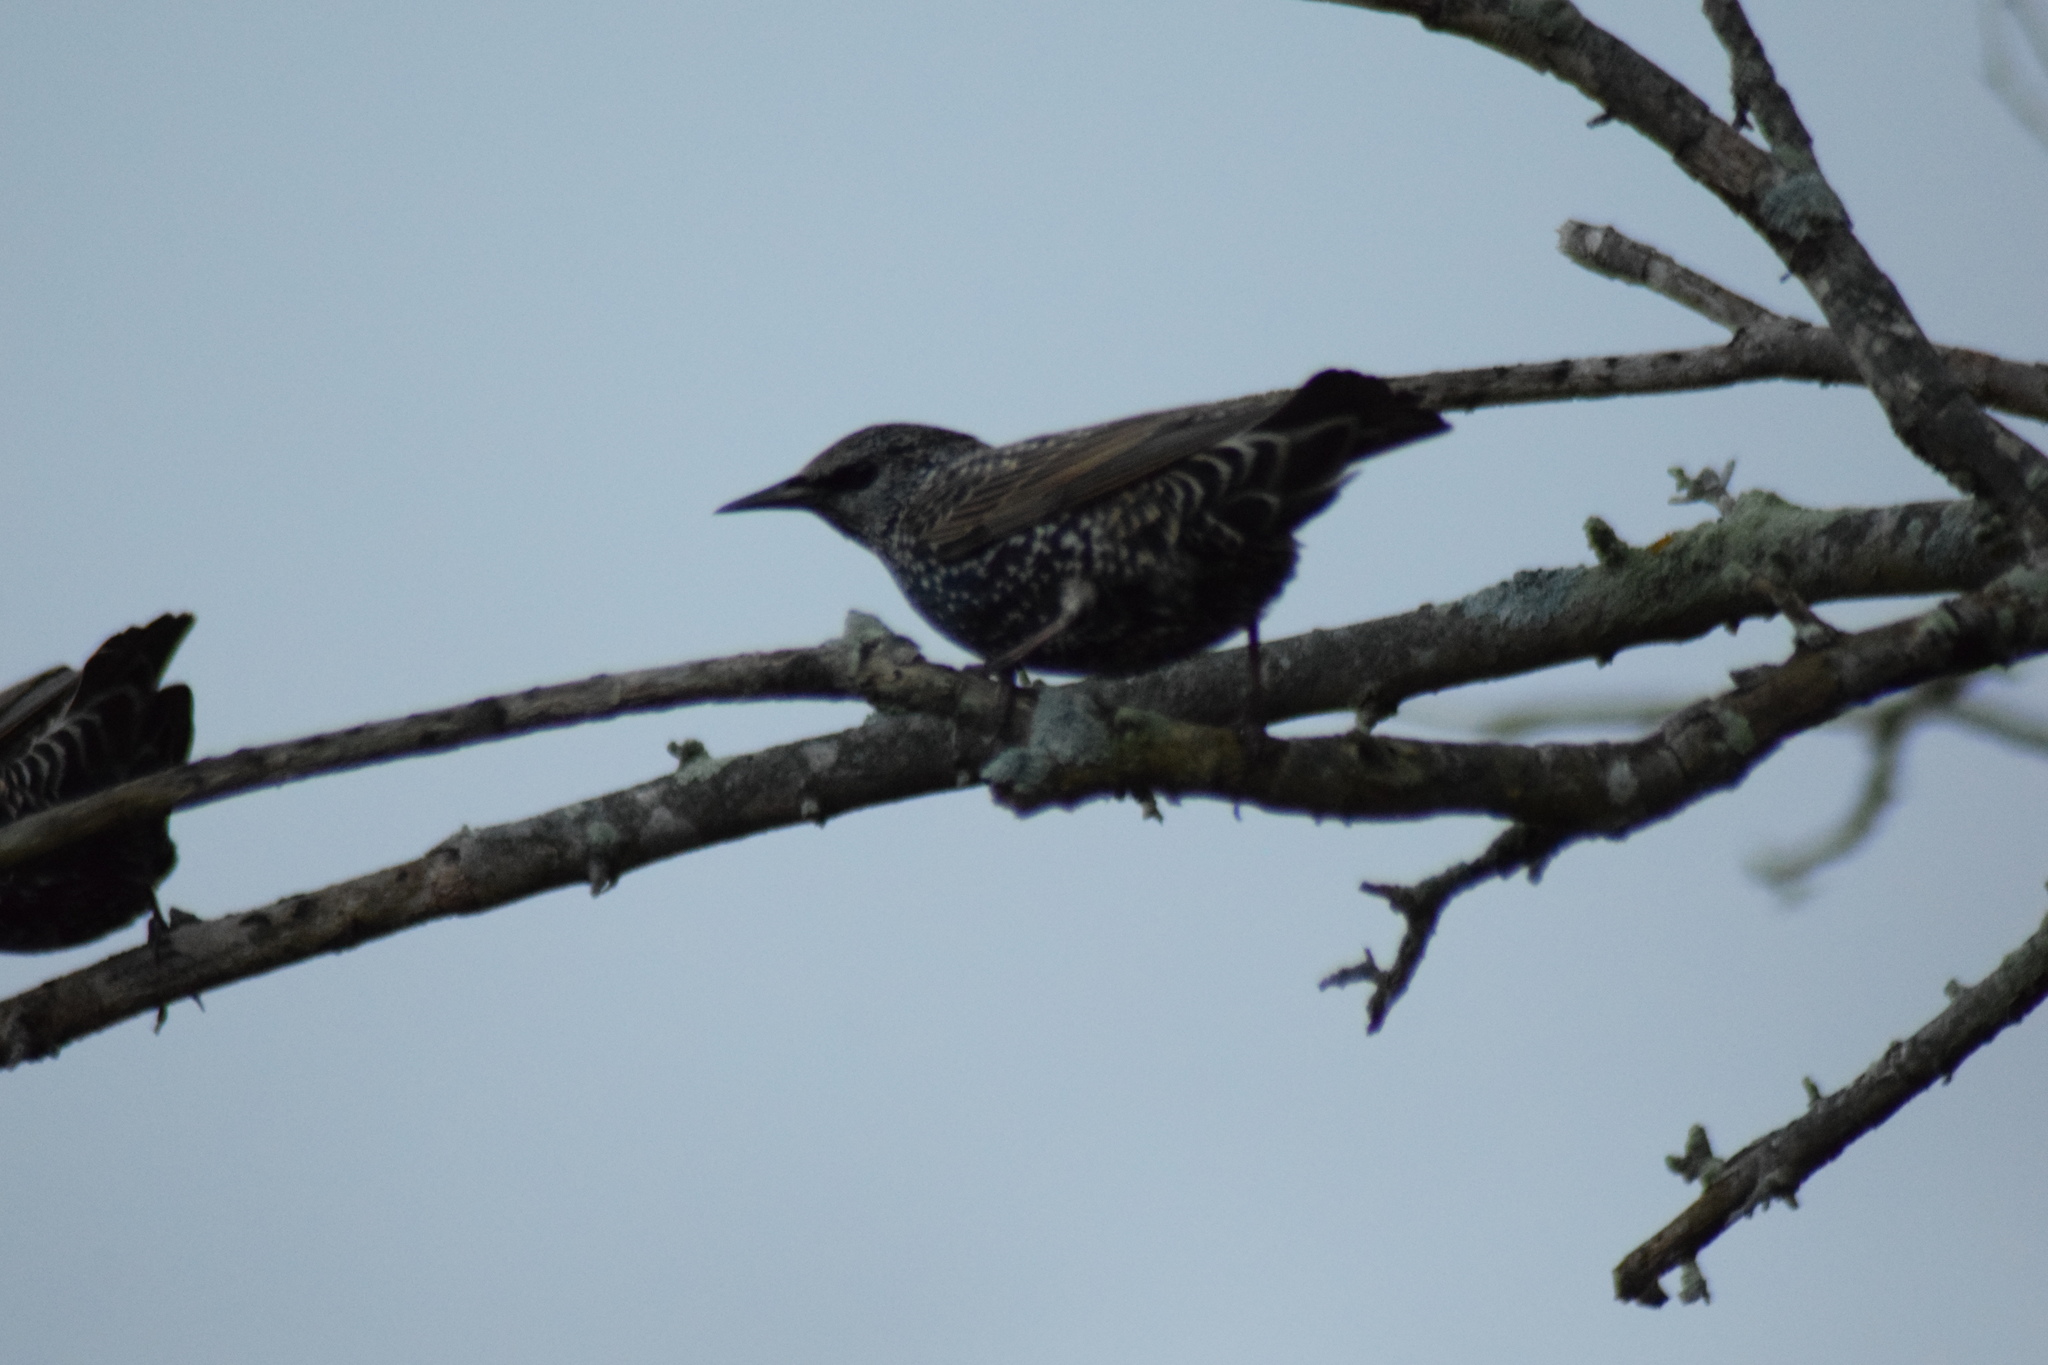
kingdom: Animalia
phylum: Chordata
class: Aves
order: Passeriformes
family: Sturnidae
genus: Sturnus
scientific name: Sturnus vulgaris
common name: Common starling
